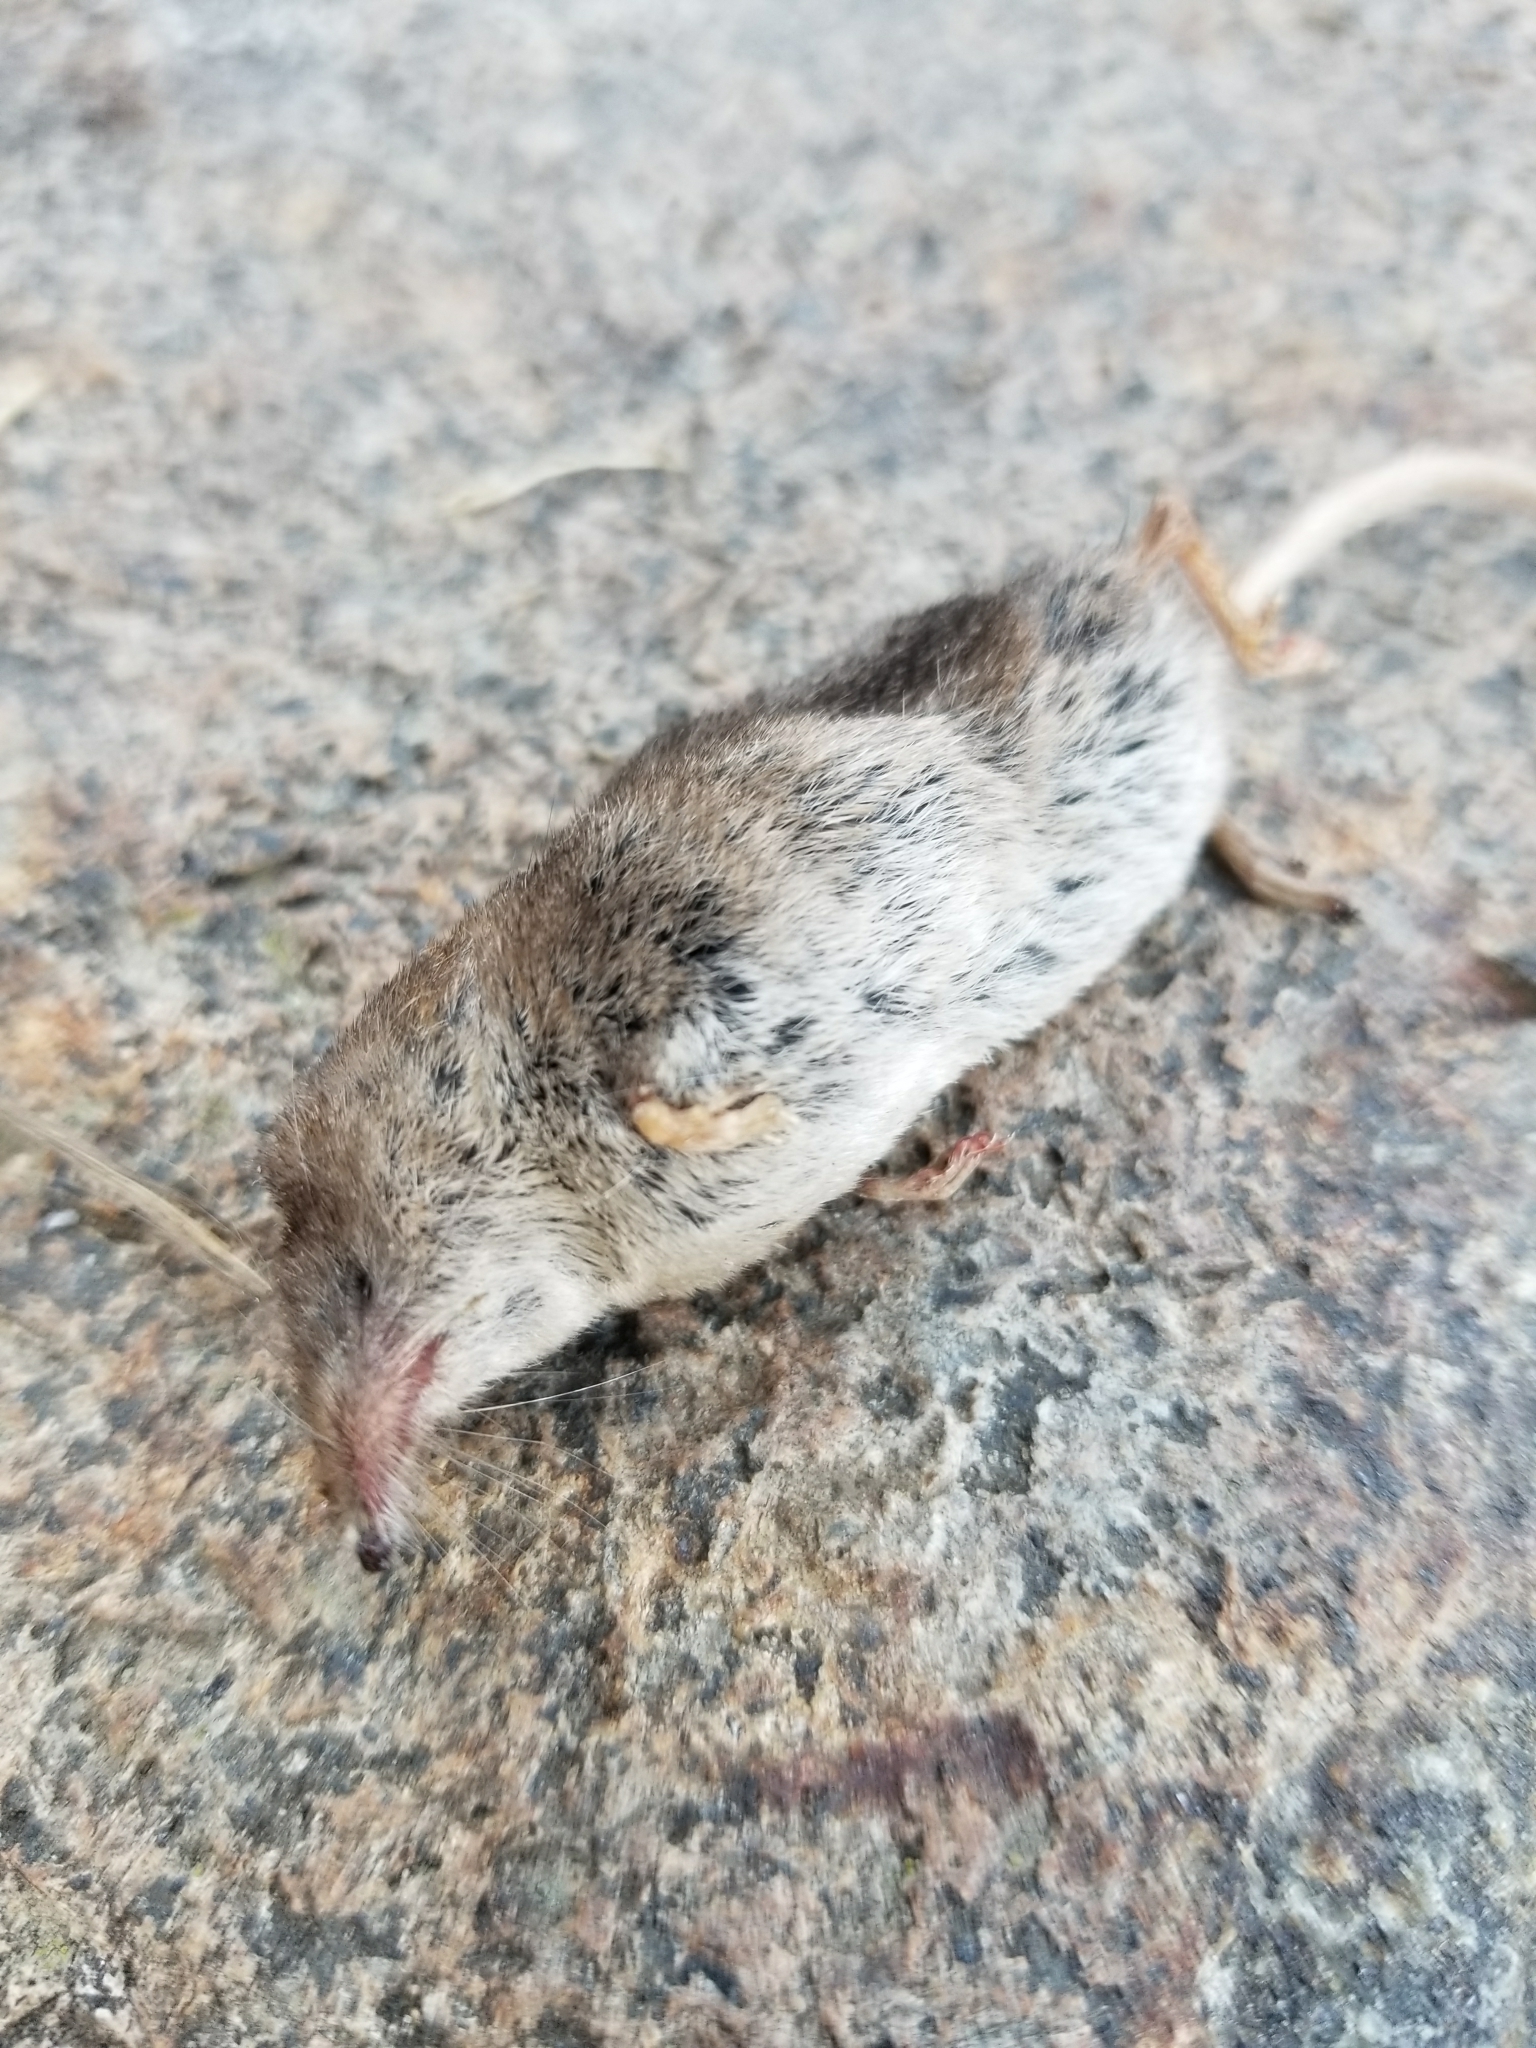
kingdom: Animalia
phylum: Chordata
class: Mammalia
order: Soricomorpha
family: Soricidae
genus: Sorex
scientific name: Sorex cinereus
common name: Cinereus shrew
